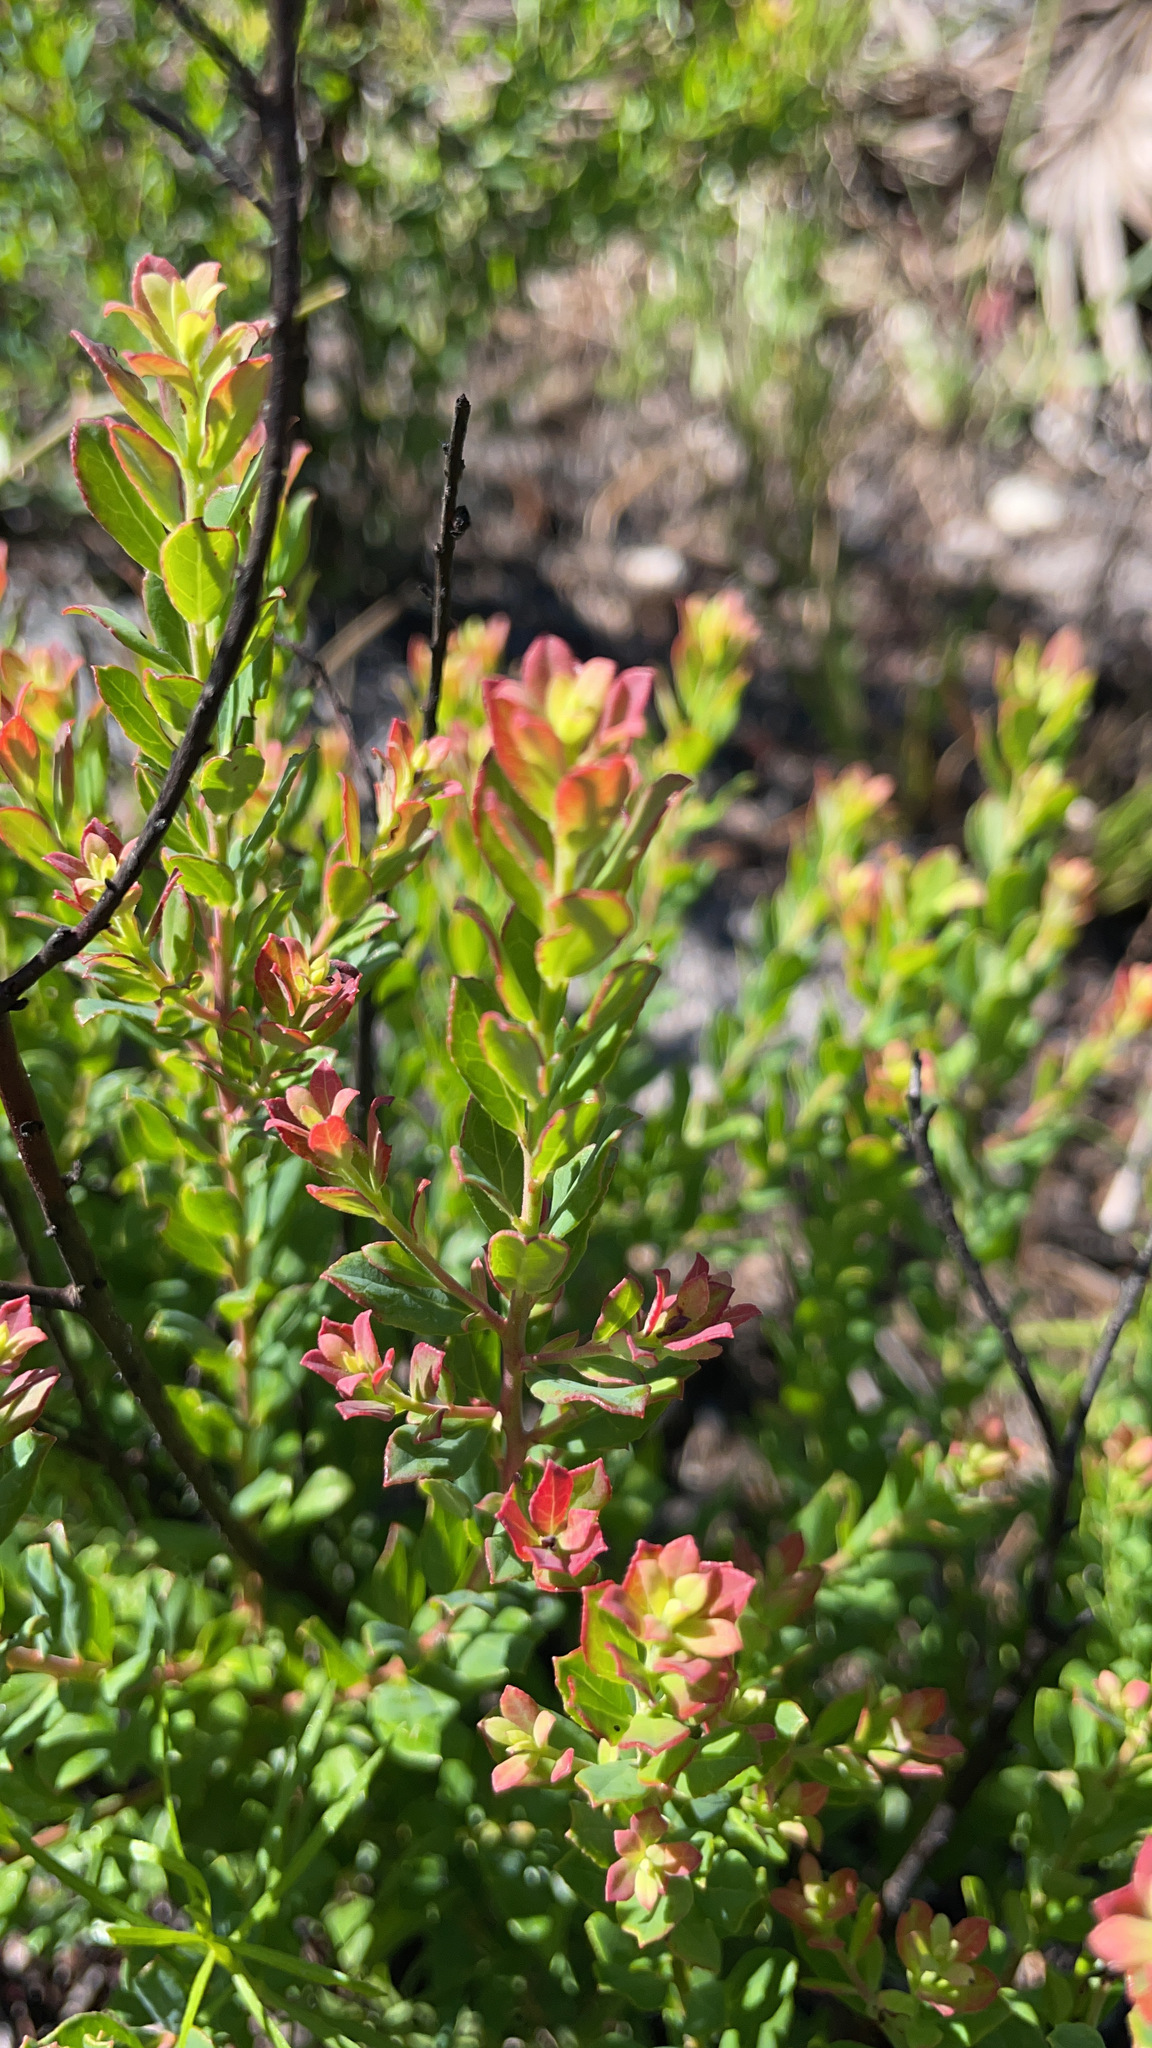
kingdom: Plantae
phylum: Tracheophyta
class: Magnoliopsida
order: Ericales
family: Ericaceae
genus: Vaccinium
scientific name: Vaccinium darrowii
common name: Darrow's blueberry
